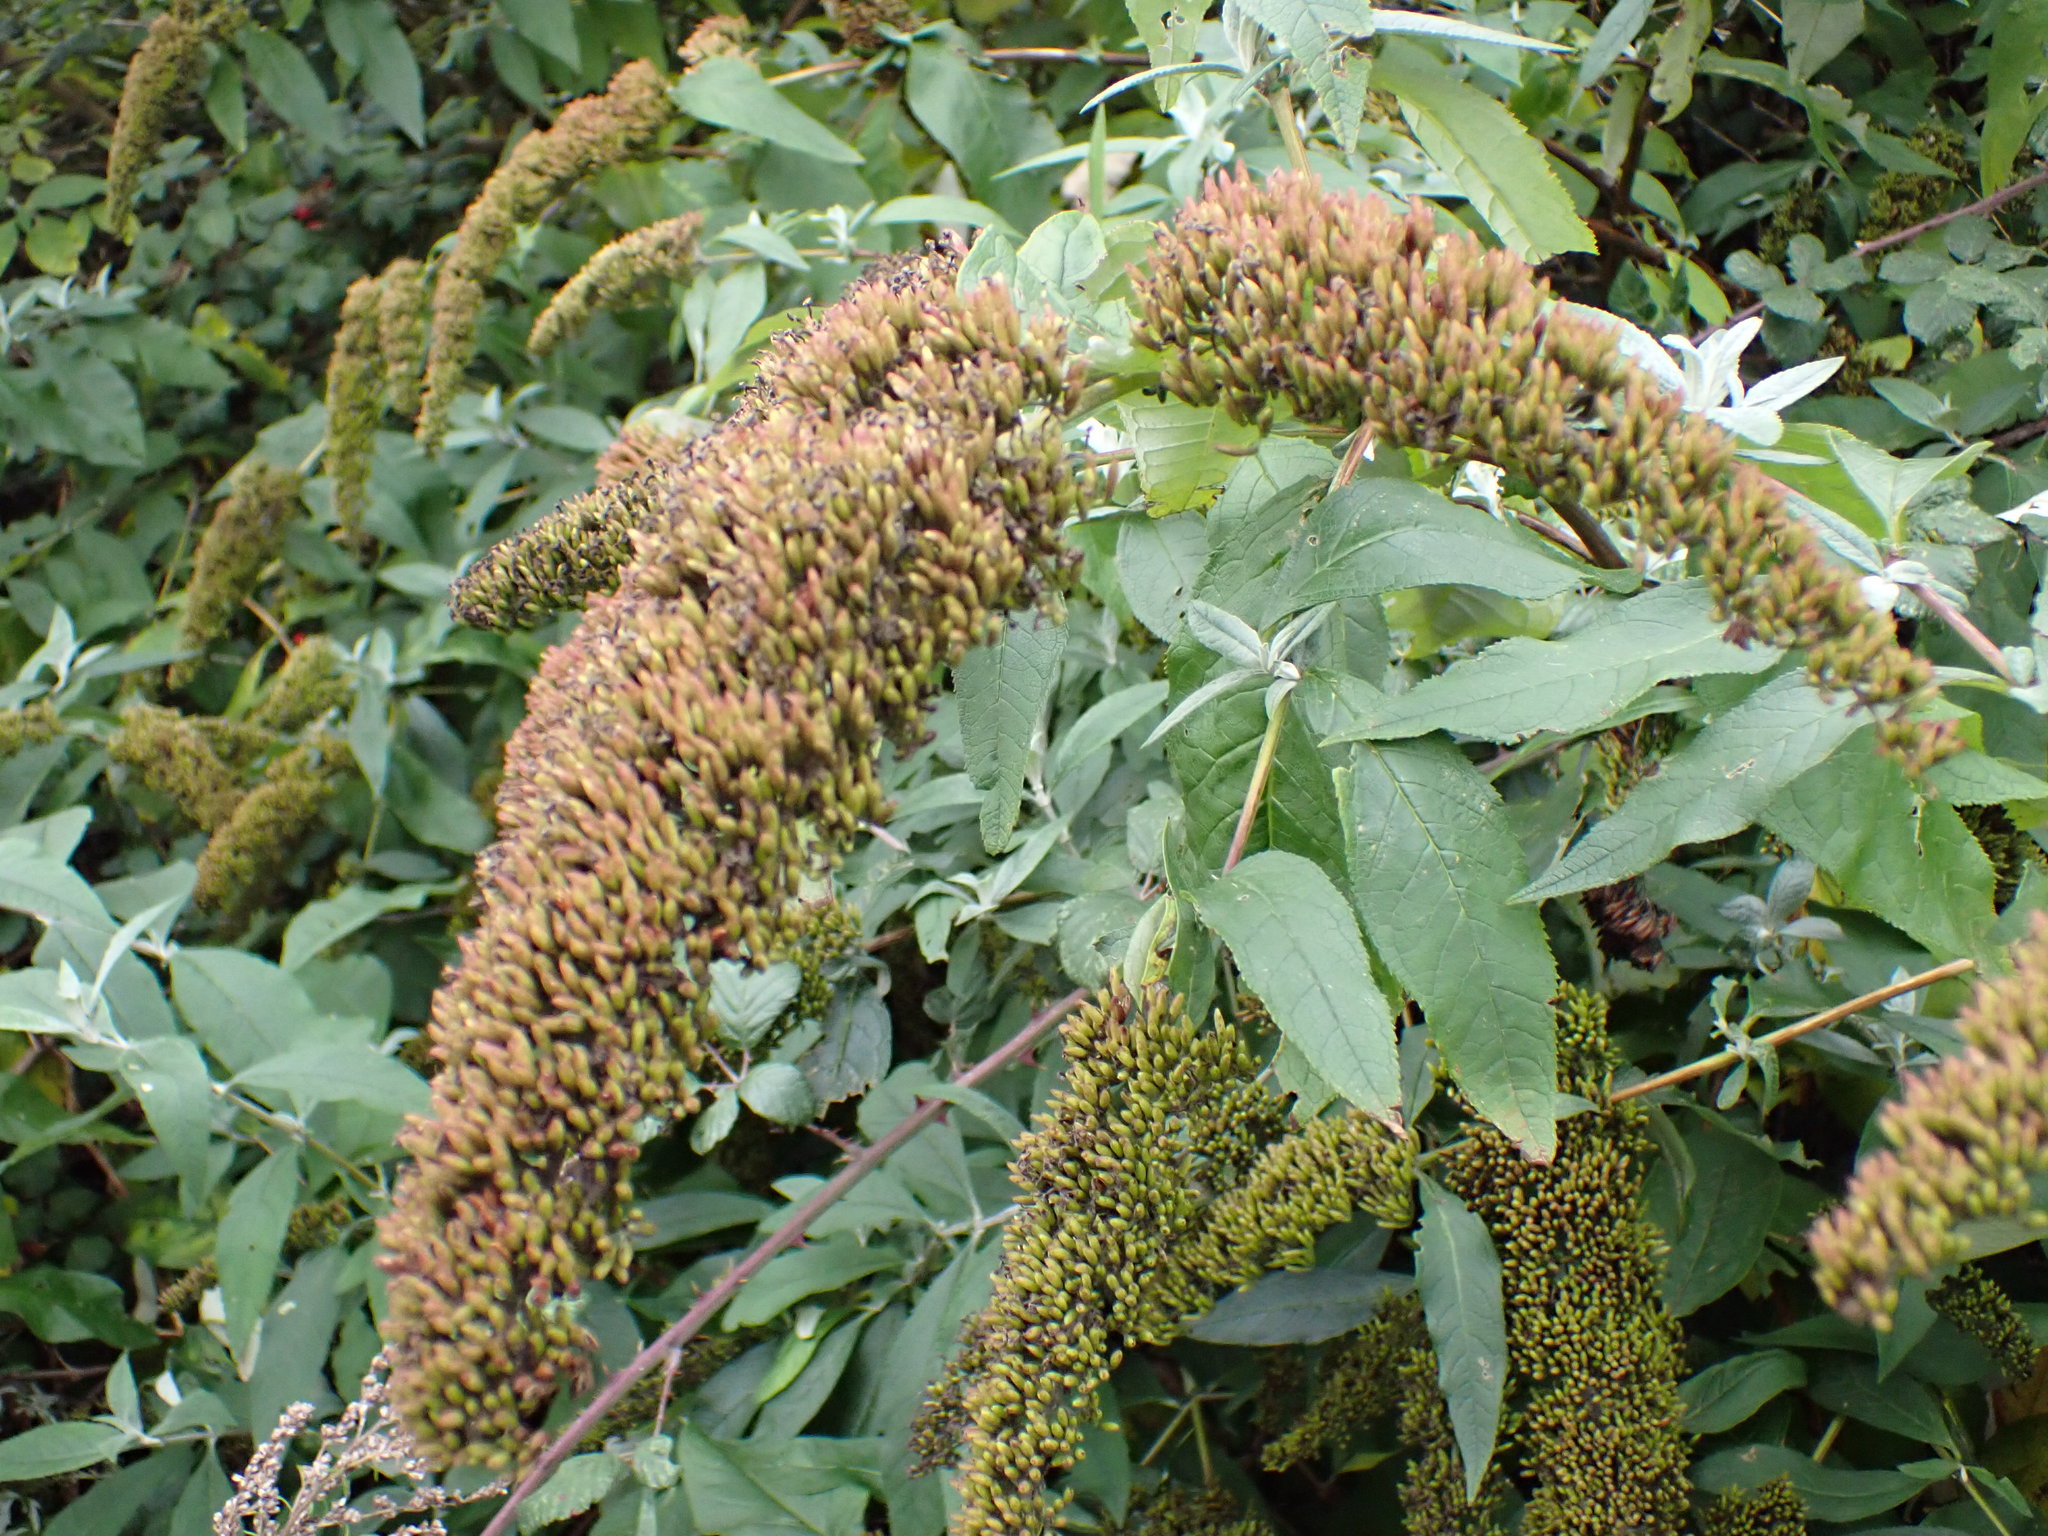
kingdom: Plantae
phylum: Tracheophyta
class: Magnoliopsida
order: Lamiales
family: Scrophulariaceae
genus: Buddleja
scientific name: Buddleja davidii
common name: Butterfly-bush
